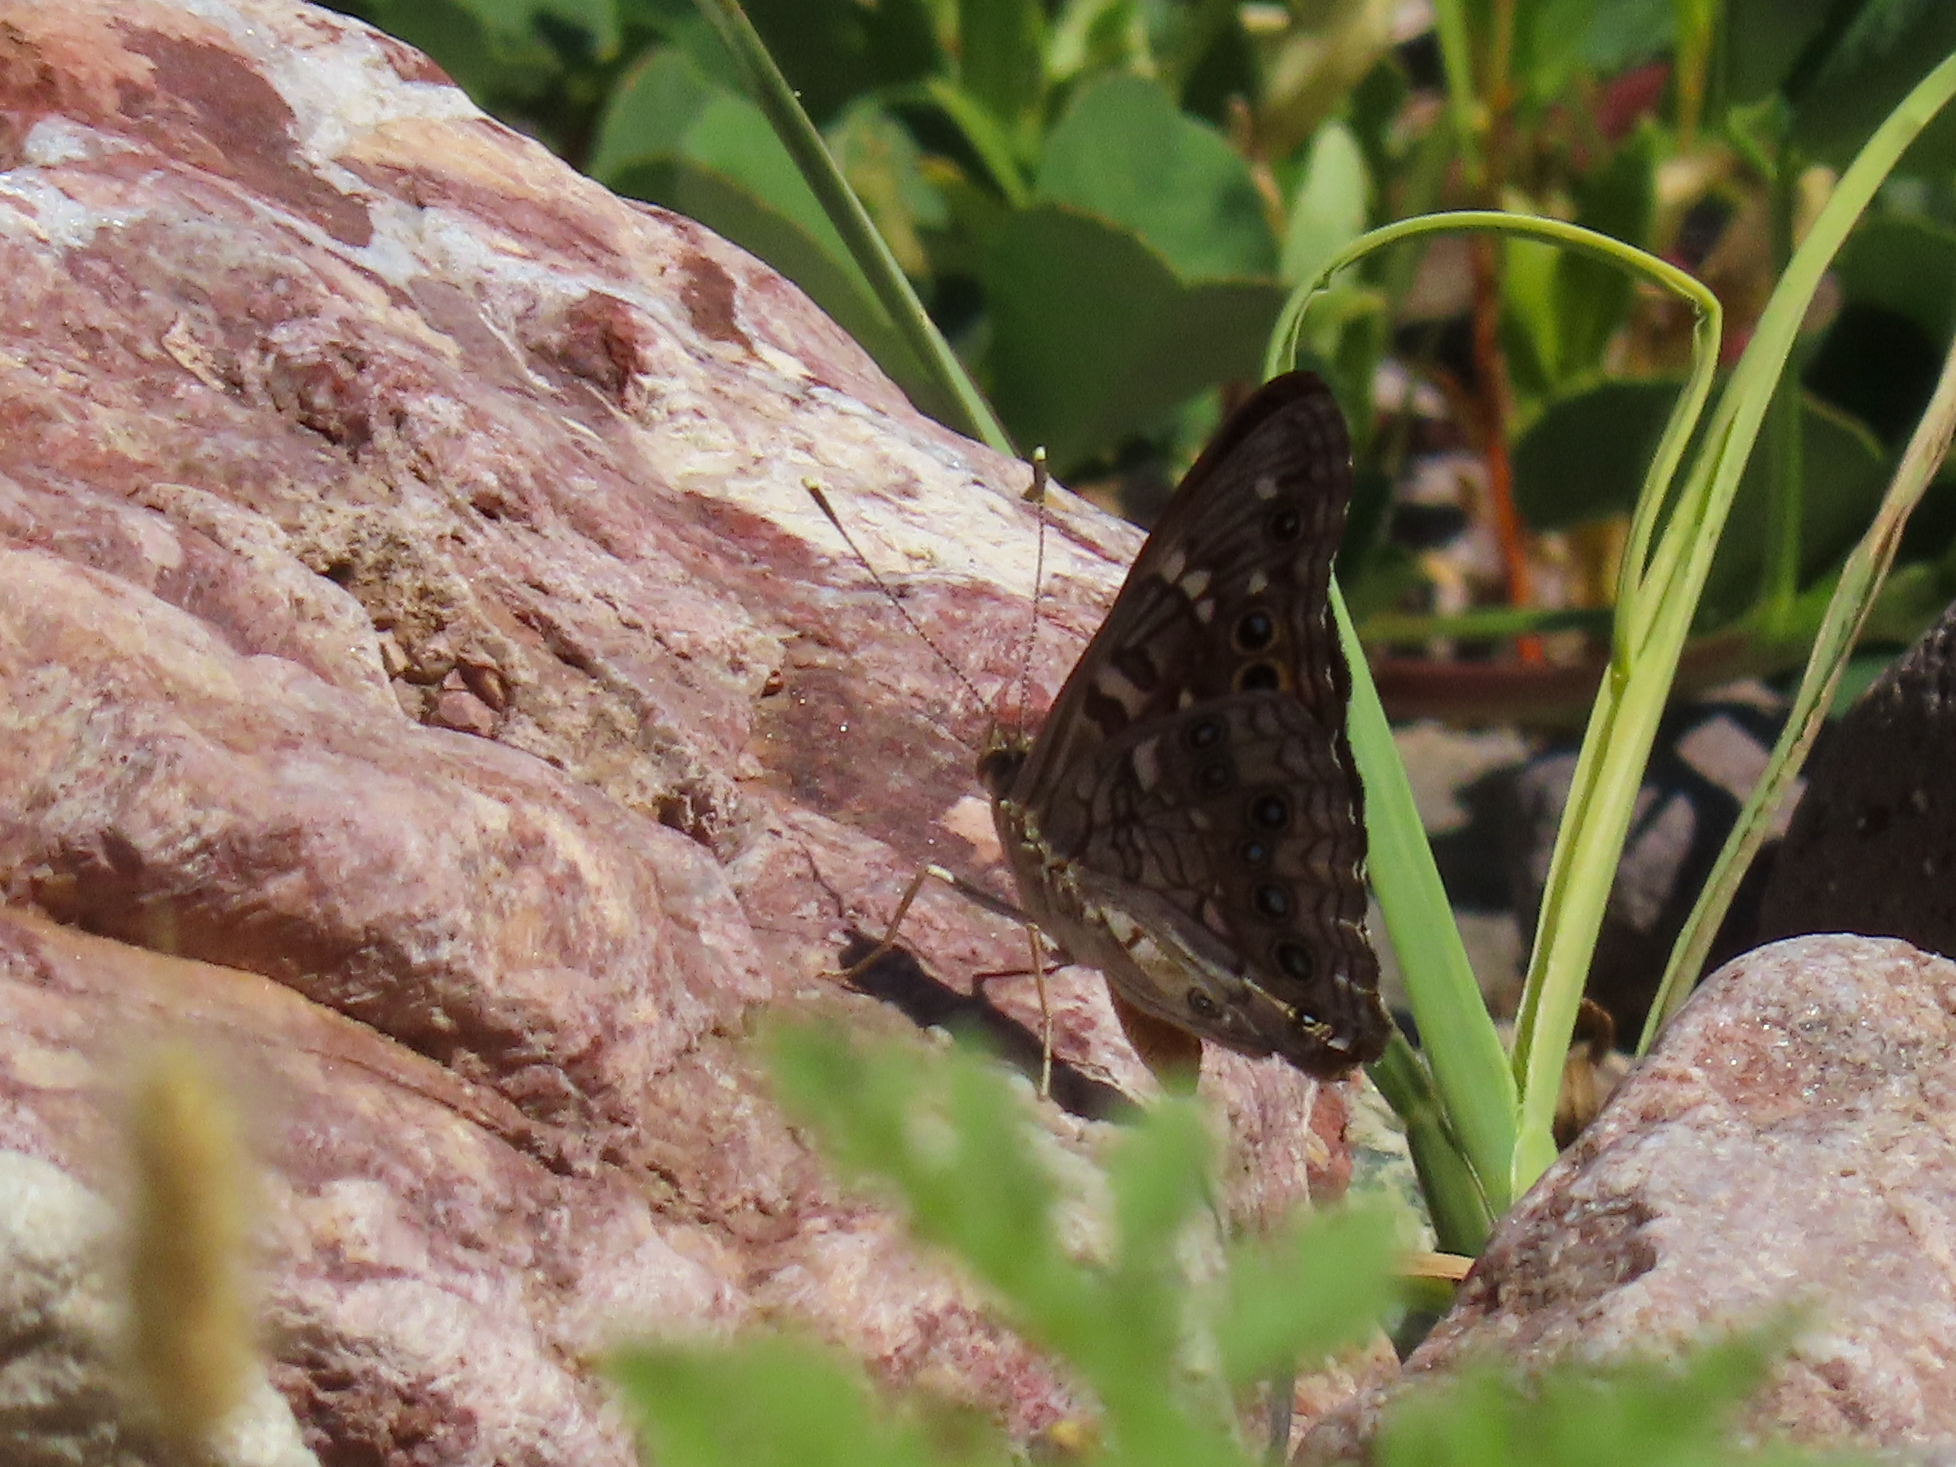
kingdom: Animalia
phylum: Arthropoda
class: Insecta
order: Lepidoptera
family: Nymphalidae
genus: Asterocampa
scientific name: Asterocampa leilia
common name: Empress leilia
